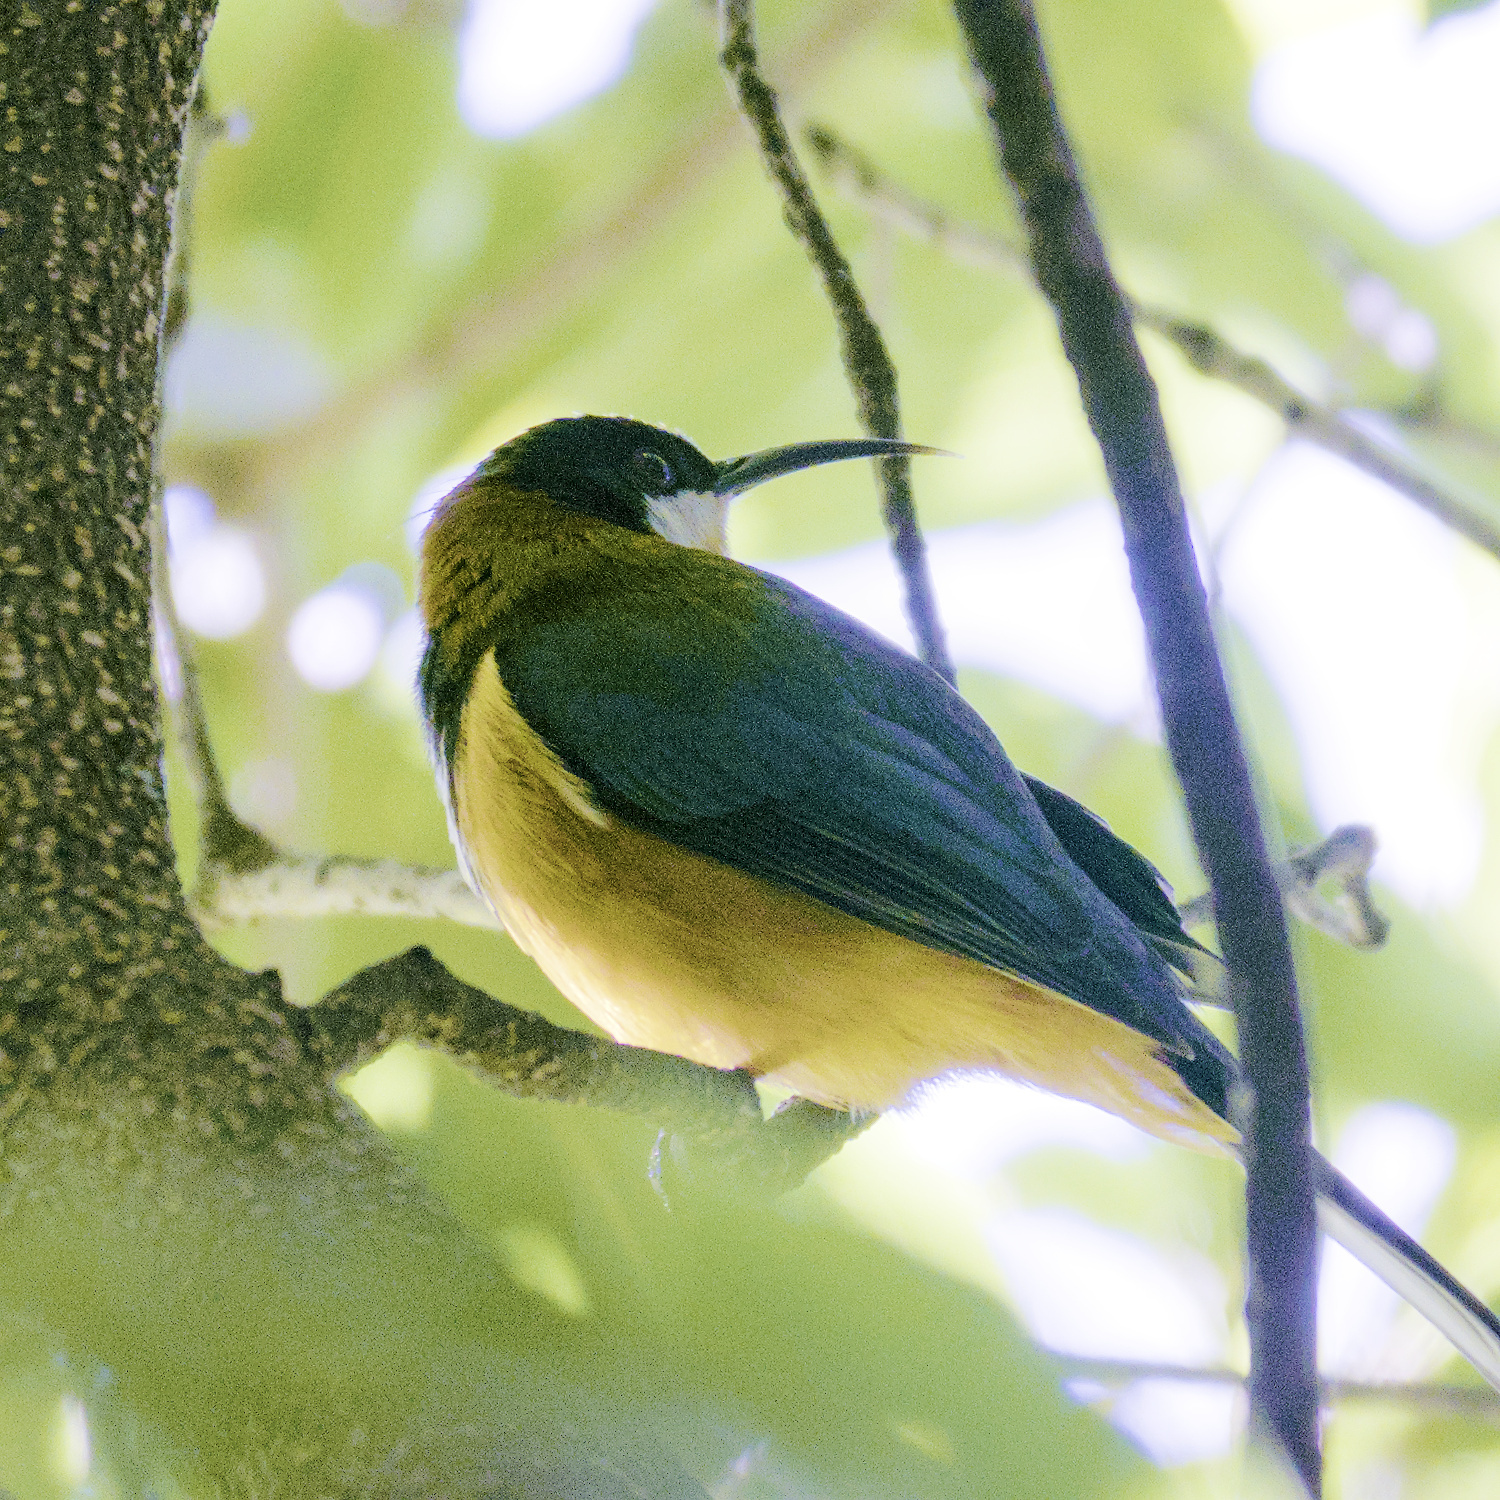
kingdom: Animalia
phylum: Chordata
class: Aves
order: Passeriformes
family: Meliphagidae
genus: Acanthorhynchus
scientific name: Acanthorhynchus tenuirostris
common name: Eastern spinebill
